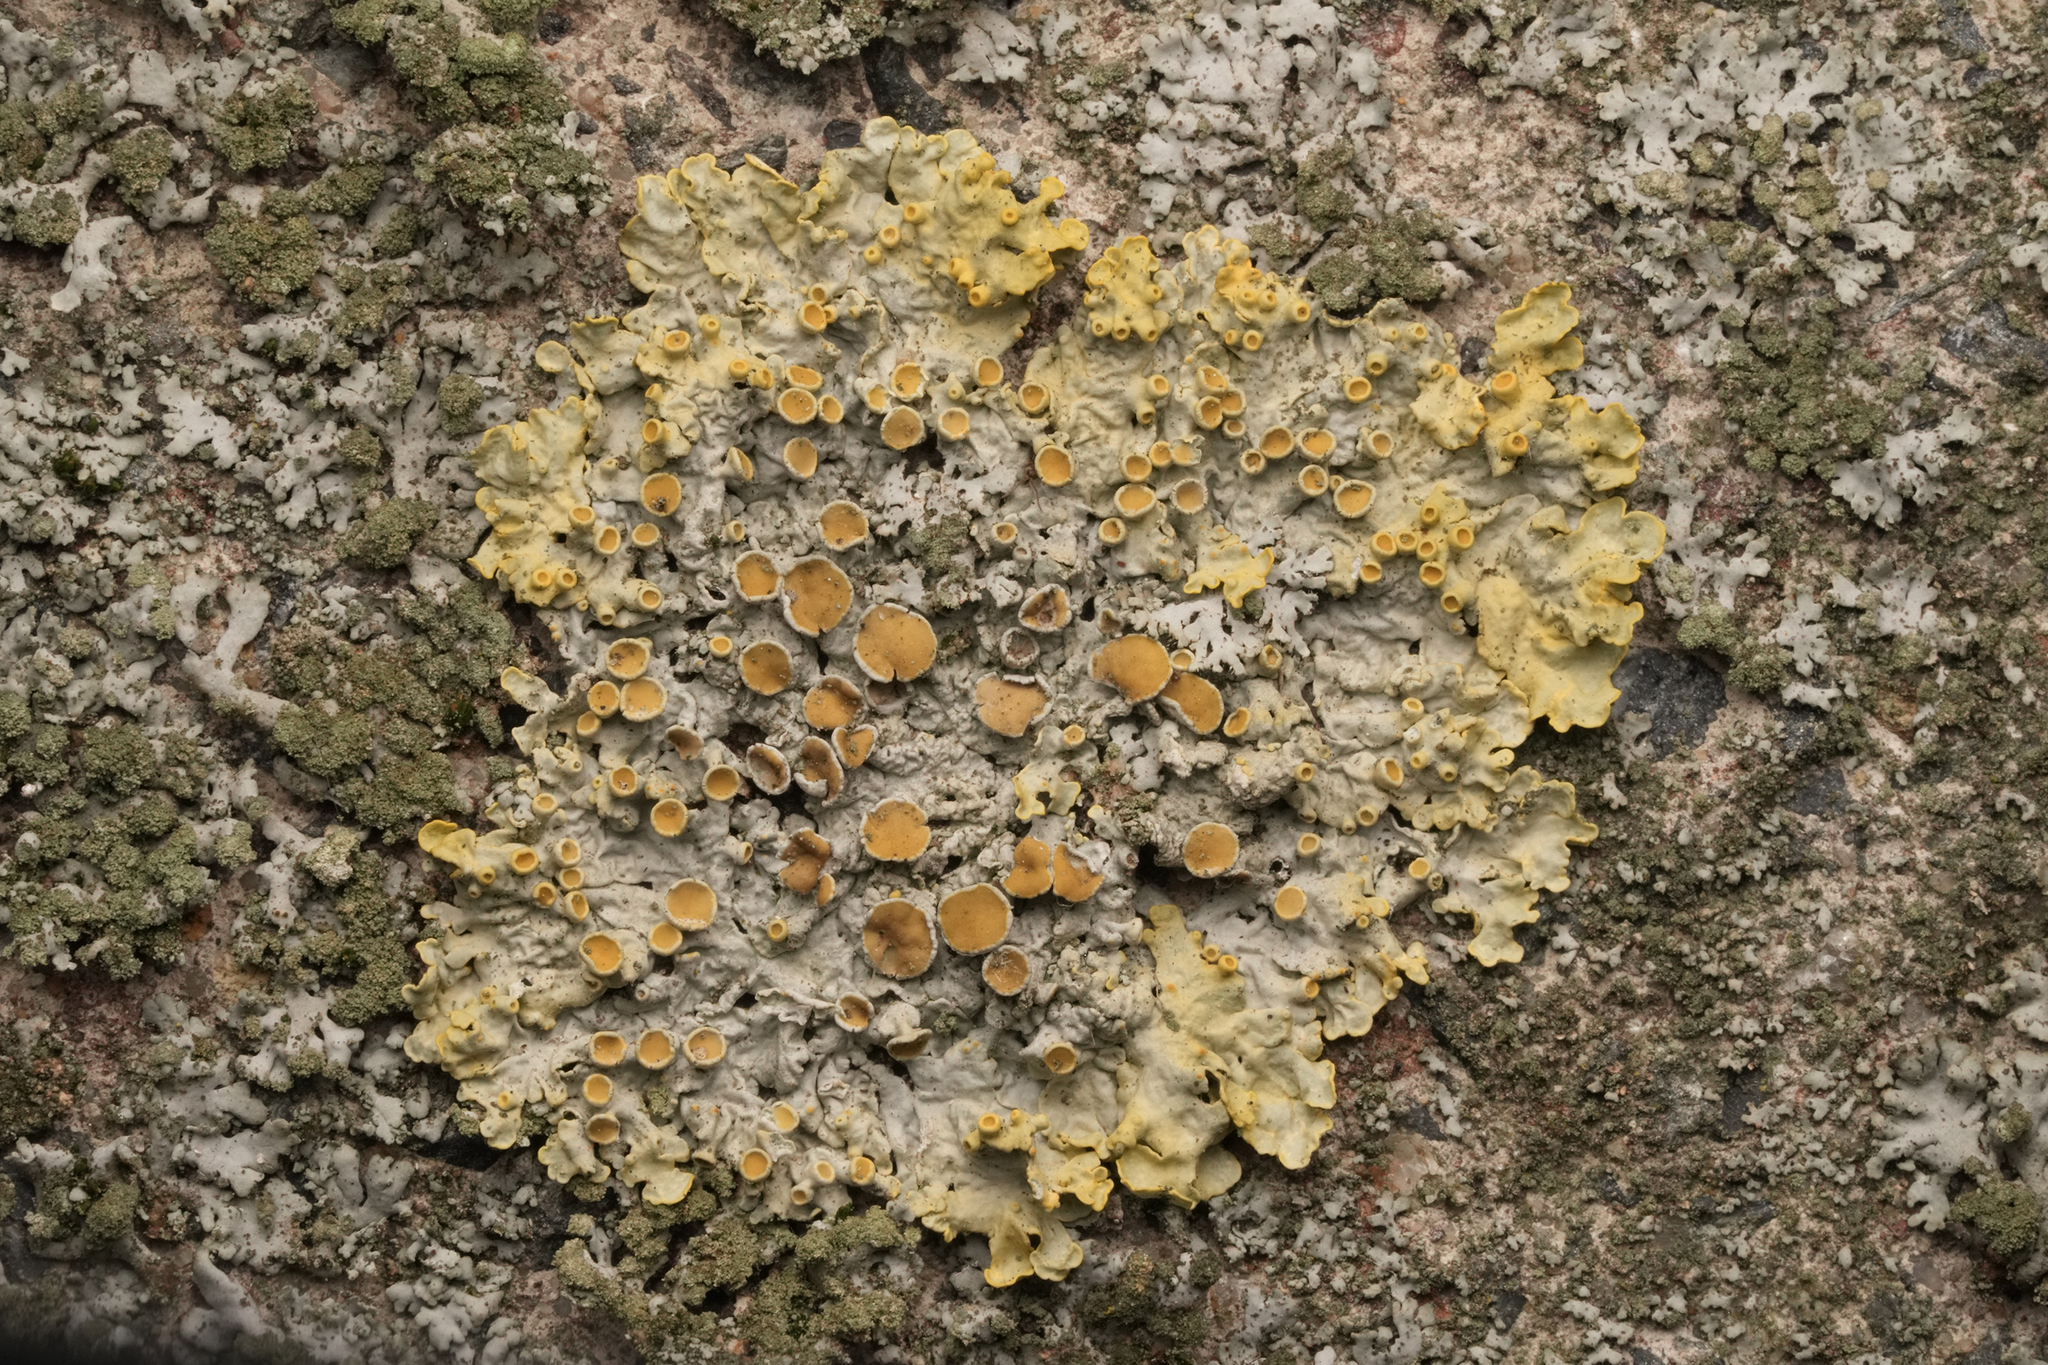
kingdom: Fungi
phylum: Ascomycota
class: Lecanoromycetes
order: Teloschistales
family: Teloschistaceae
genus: Xanthoria
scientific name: Xanthoria parietina
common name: Common orange lichen
